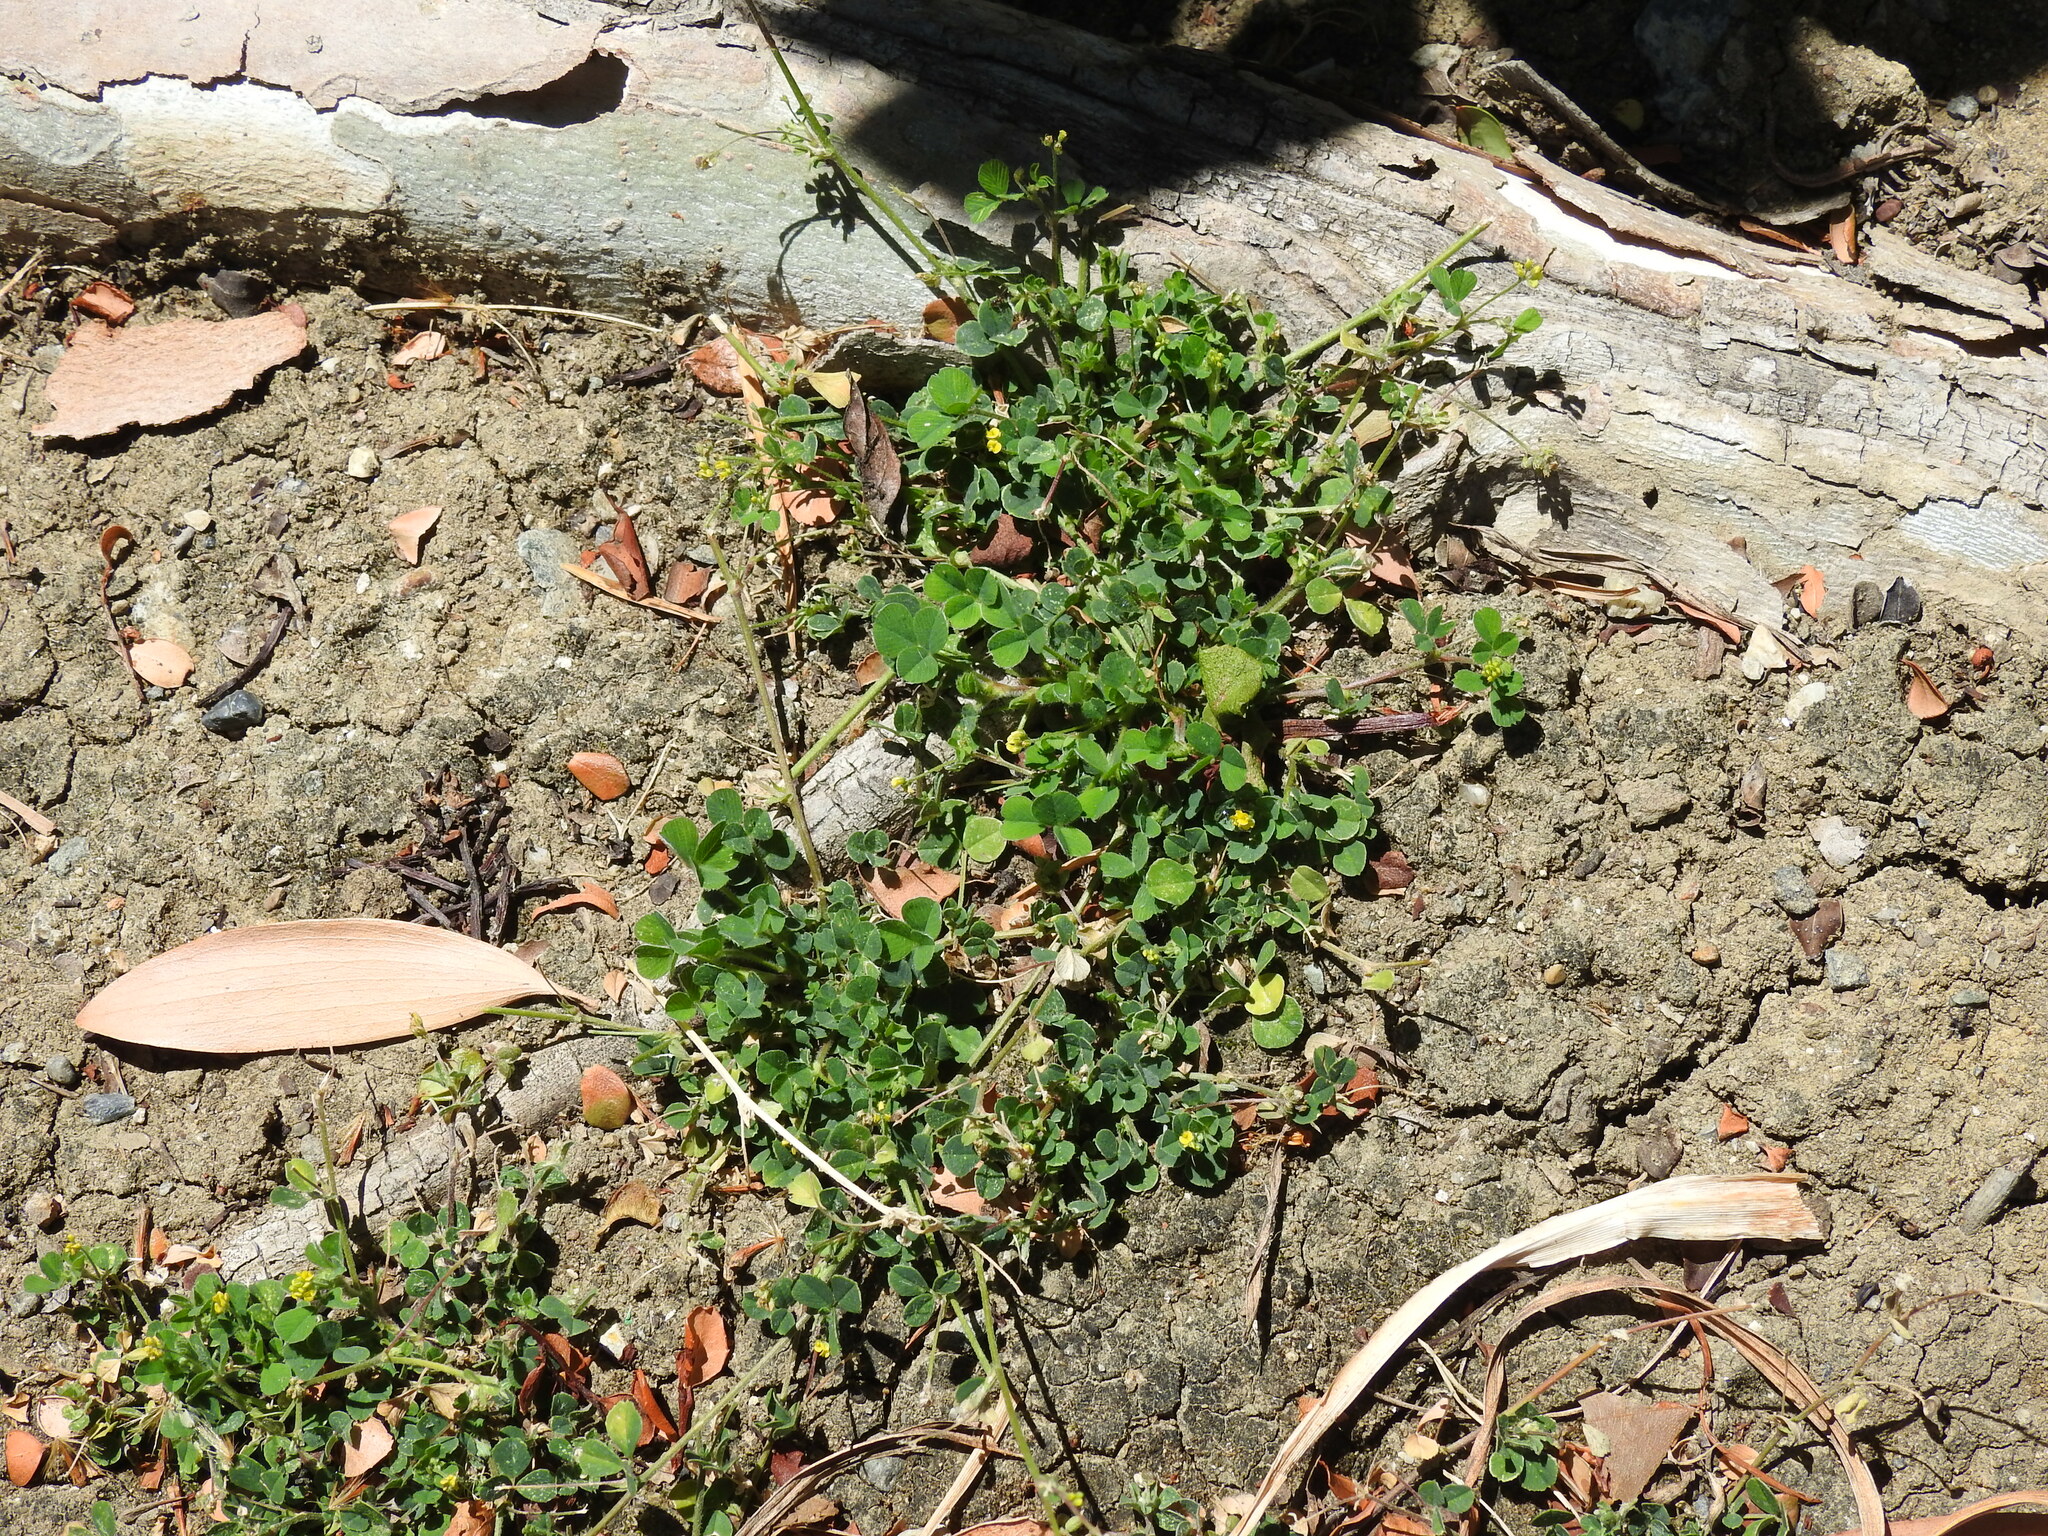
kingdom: Plantae
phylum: Tracheophyta
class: Magnoliopsida
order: Fabales
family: Fabaceae
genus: Medicago
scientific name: Medicago lupulina
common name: Black medick
